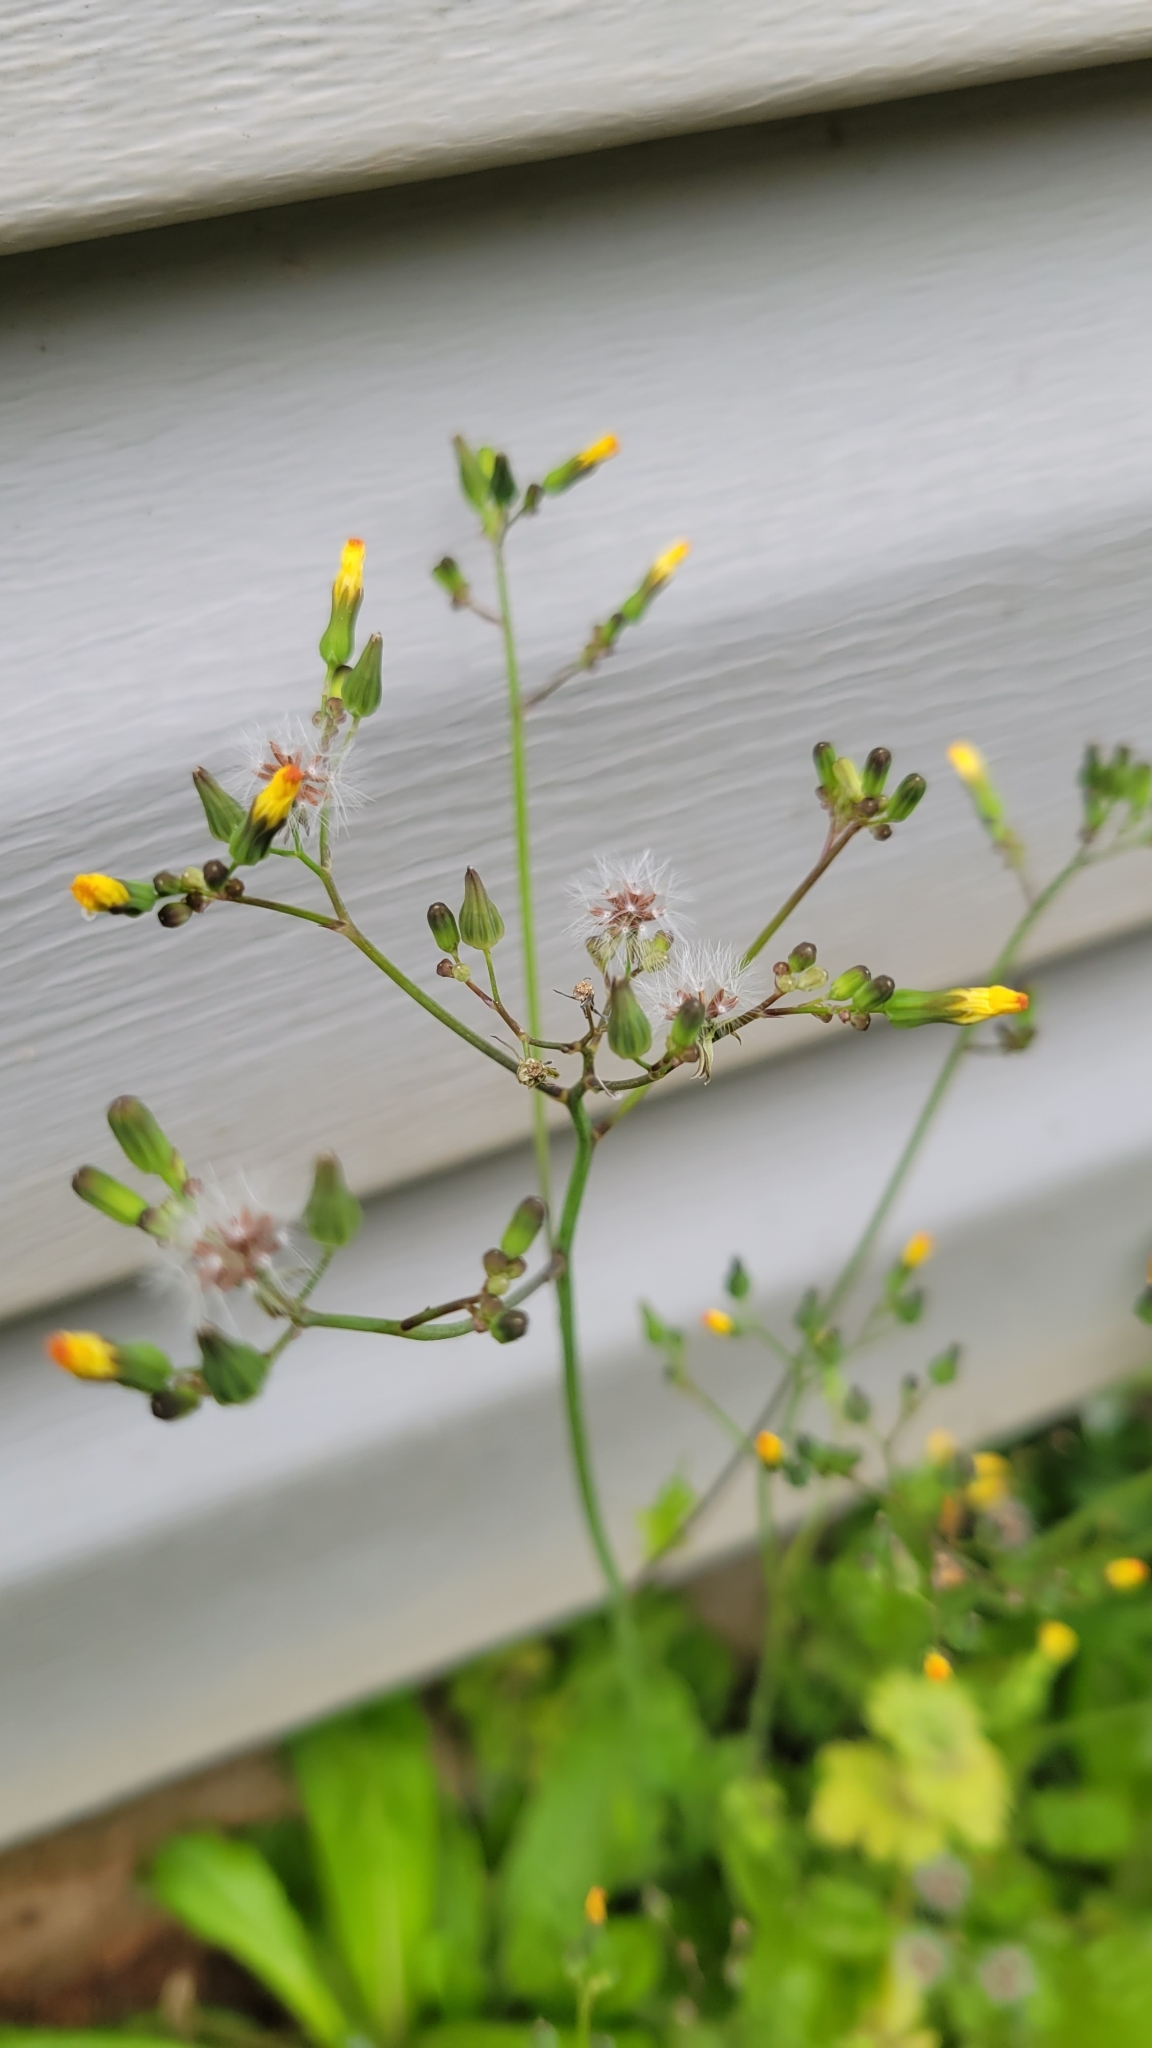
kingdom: Plantae
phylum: Tracheophyta
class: Magnoliopsida
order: Asterales
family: Asteraceae
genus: Youngia
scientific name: Youngia japonica
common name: Oriental false hawksbeard
